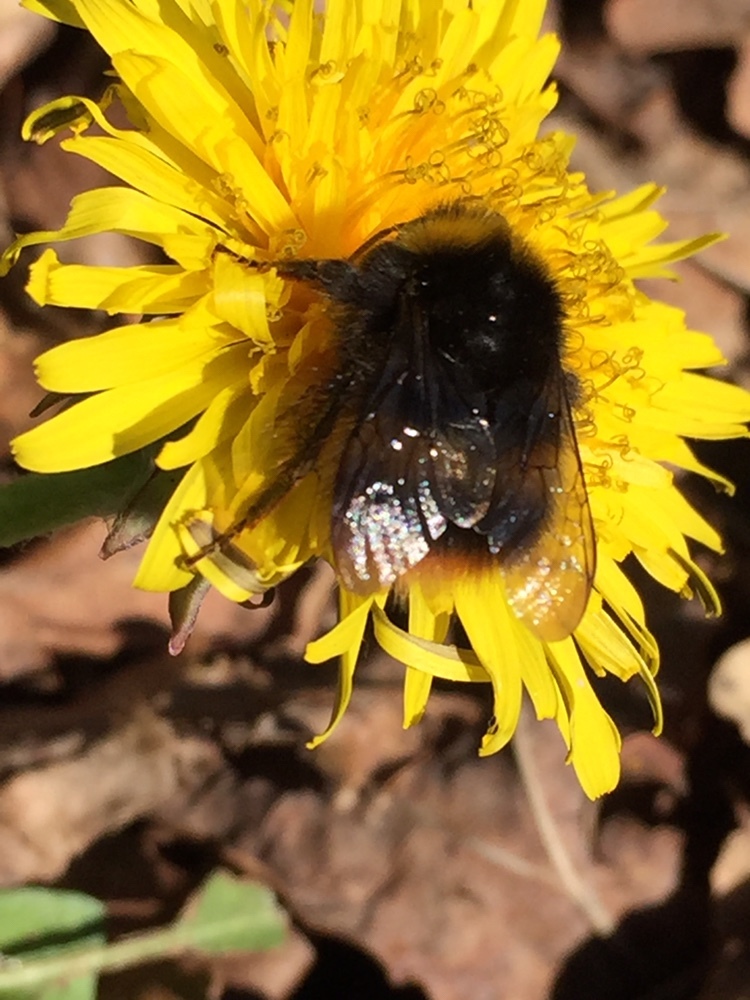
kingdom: Animalia
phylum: Arthropoda
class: Insecta
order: Hymenoptera
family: Apidae
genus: Bombus
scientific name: Bombus pratorum
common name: Early humble-bee
